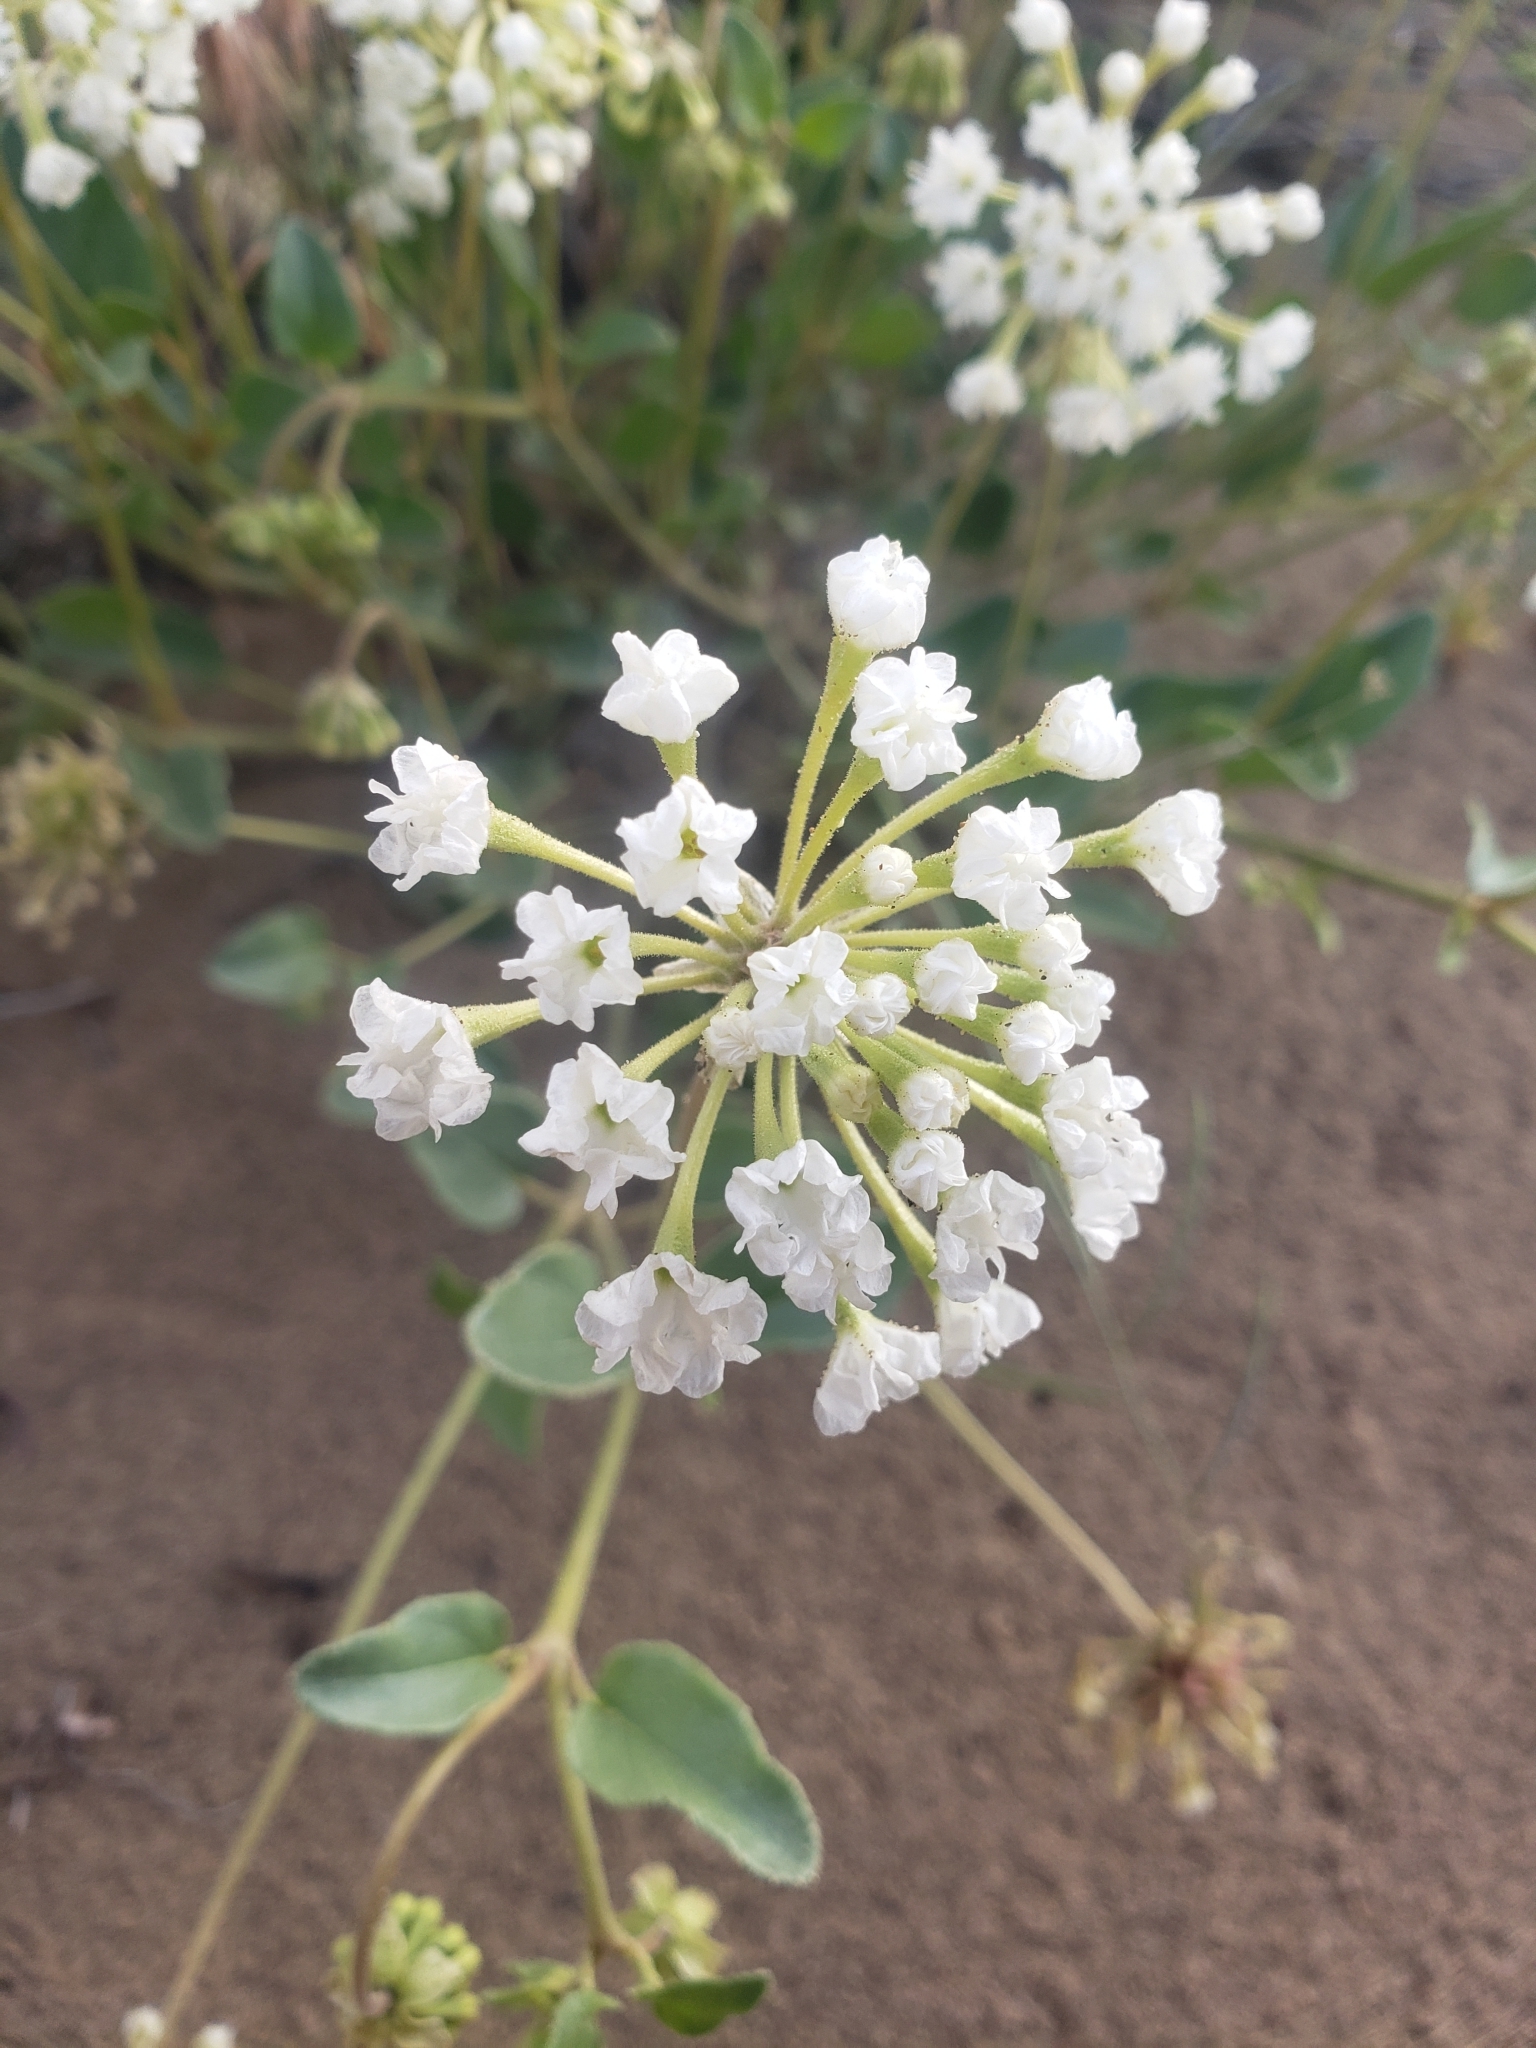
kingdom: Plantae
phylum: Tracheophyta
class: Magnoliopsida
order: Caryophyllales
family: Nyctaginaceae
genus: Abronia
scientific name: Abronia mellifera
